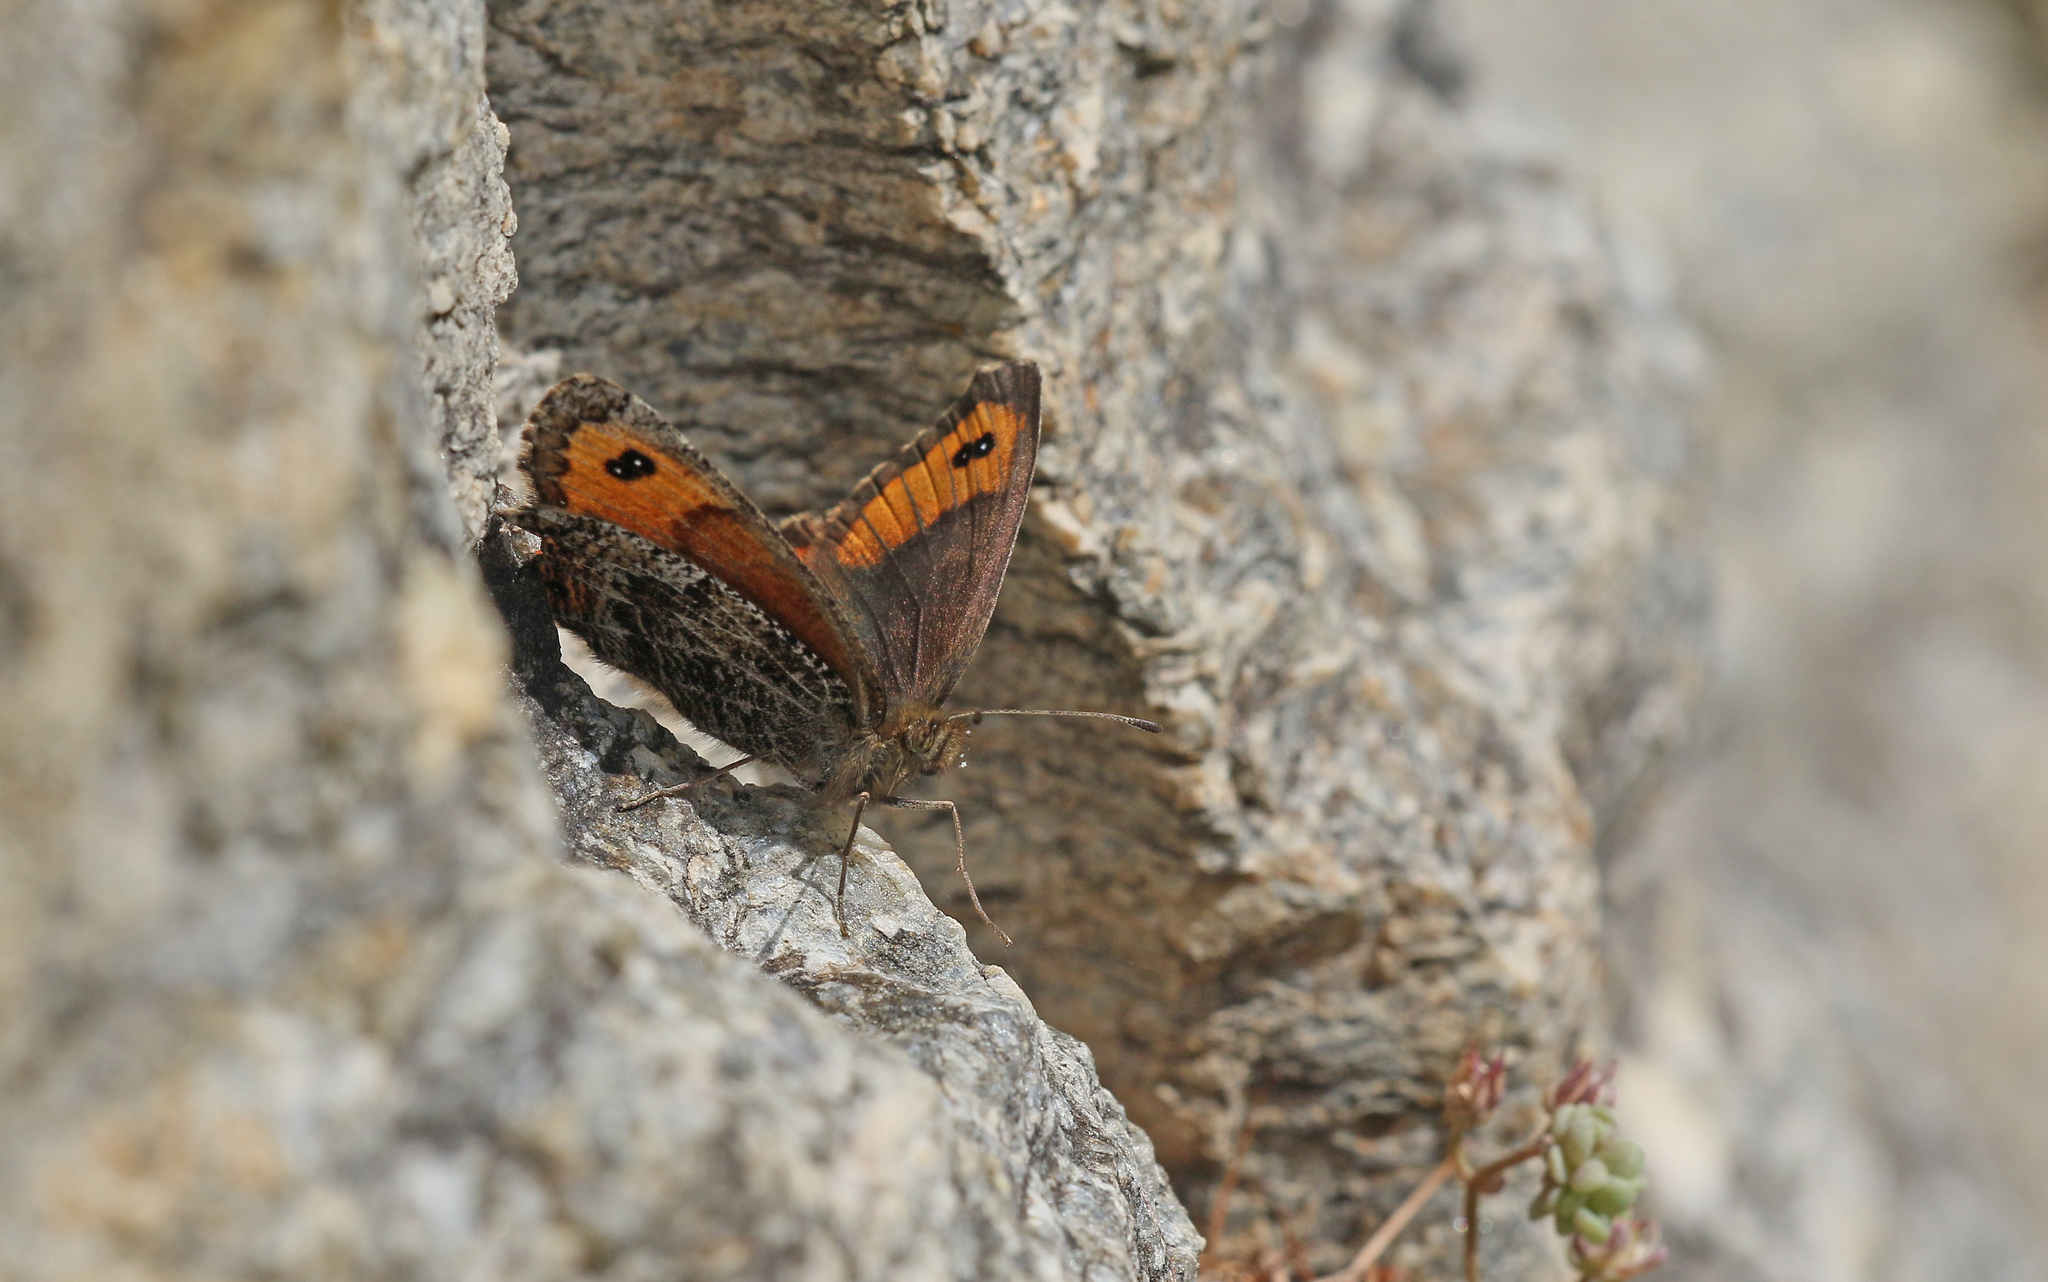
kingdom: Animalia
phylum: Arthropoda
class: Insecta
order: Lepidoptera
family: Nymphalidae
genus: Erebia
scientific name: Erebia montanus
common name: Marbled ringlet
